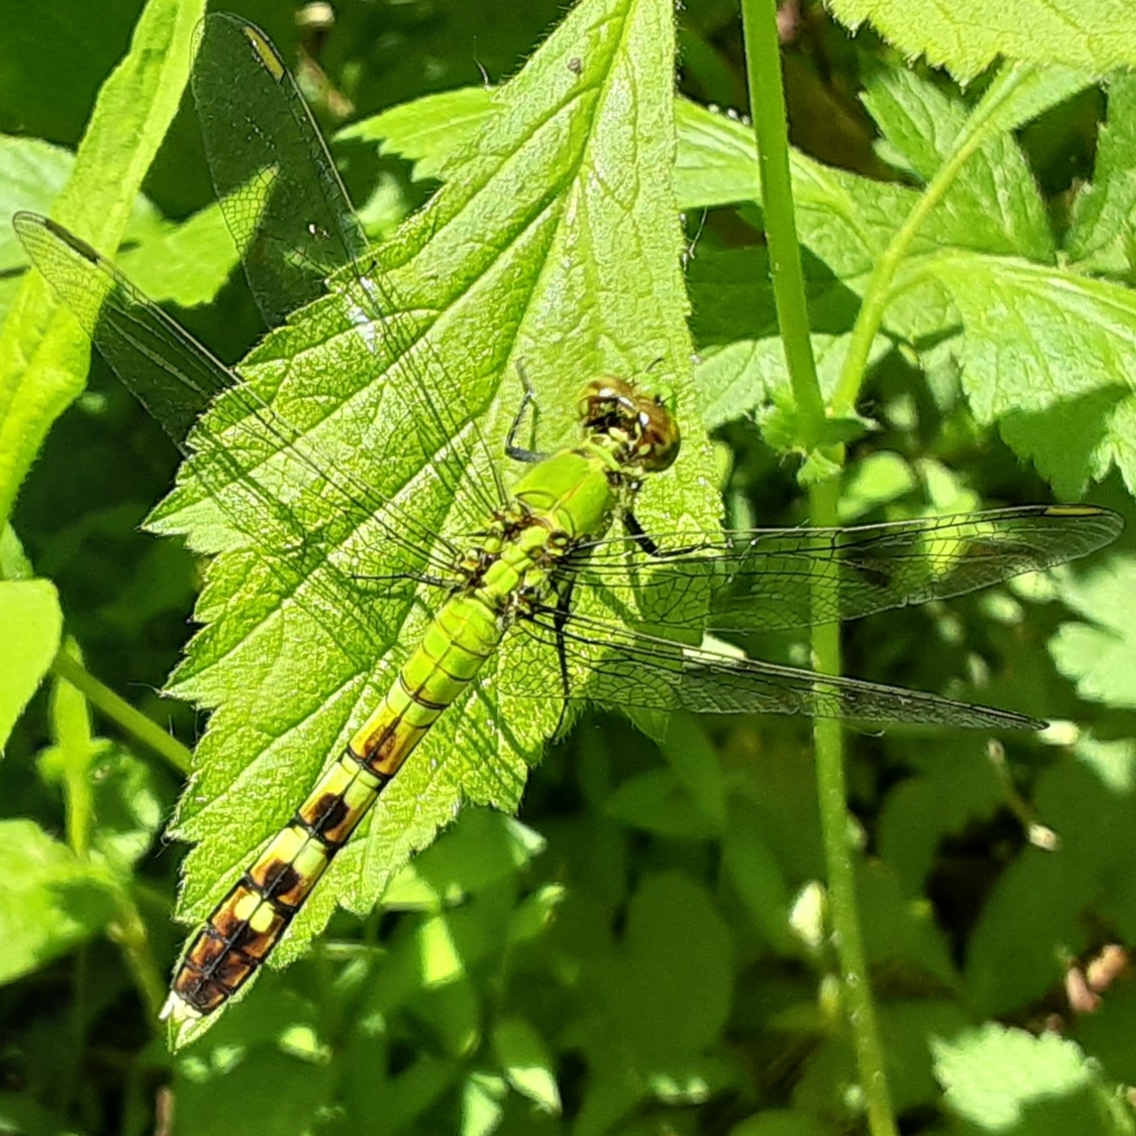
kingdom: Animalia
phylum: Arthropoda
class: Insecta
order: Odonata
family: Libellulidae
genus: Erythemis
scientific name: Erythemis simplicicollis
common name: Eastern pondhawk
